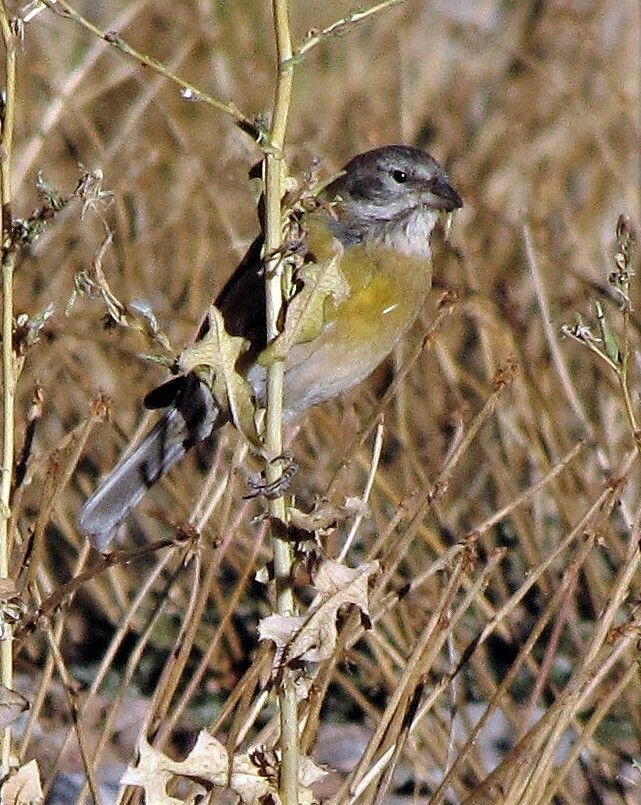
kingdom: Animalia
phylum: Chordata
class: Aves
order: Passeriformes
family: Thraupidae
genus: Phrygilus
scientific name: Phrygilus gayi
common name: Grey-hooded sierra finch
